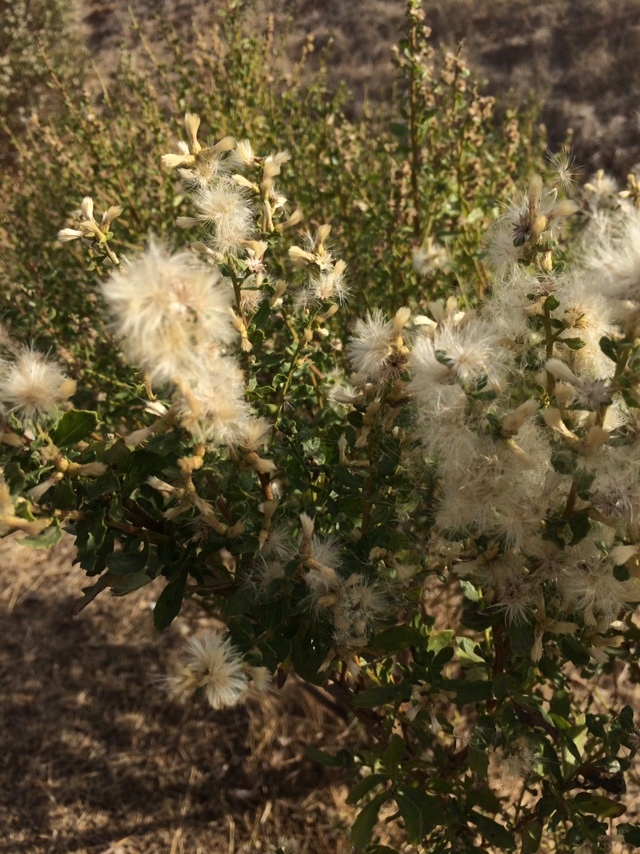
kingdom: Plantae
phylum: Tracheophyta
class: Magnoliopsida
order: Asterales
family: Asteraceae
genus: Baccharis
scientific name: Baccharis pilularis
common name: Coyotebrush
